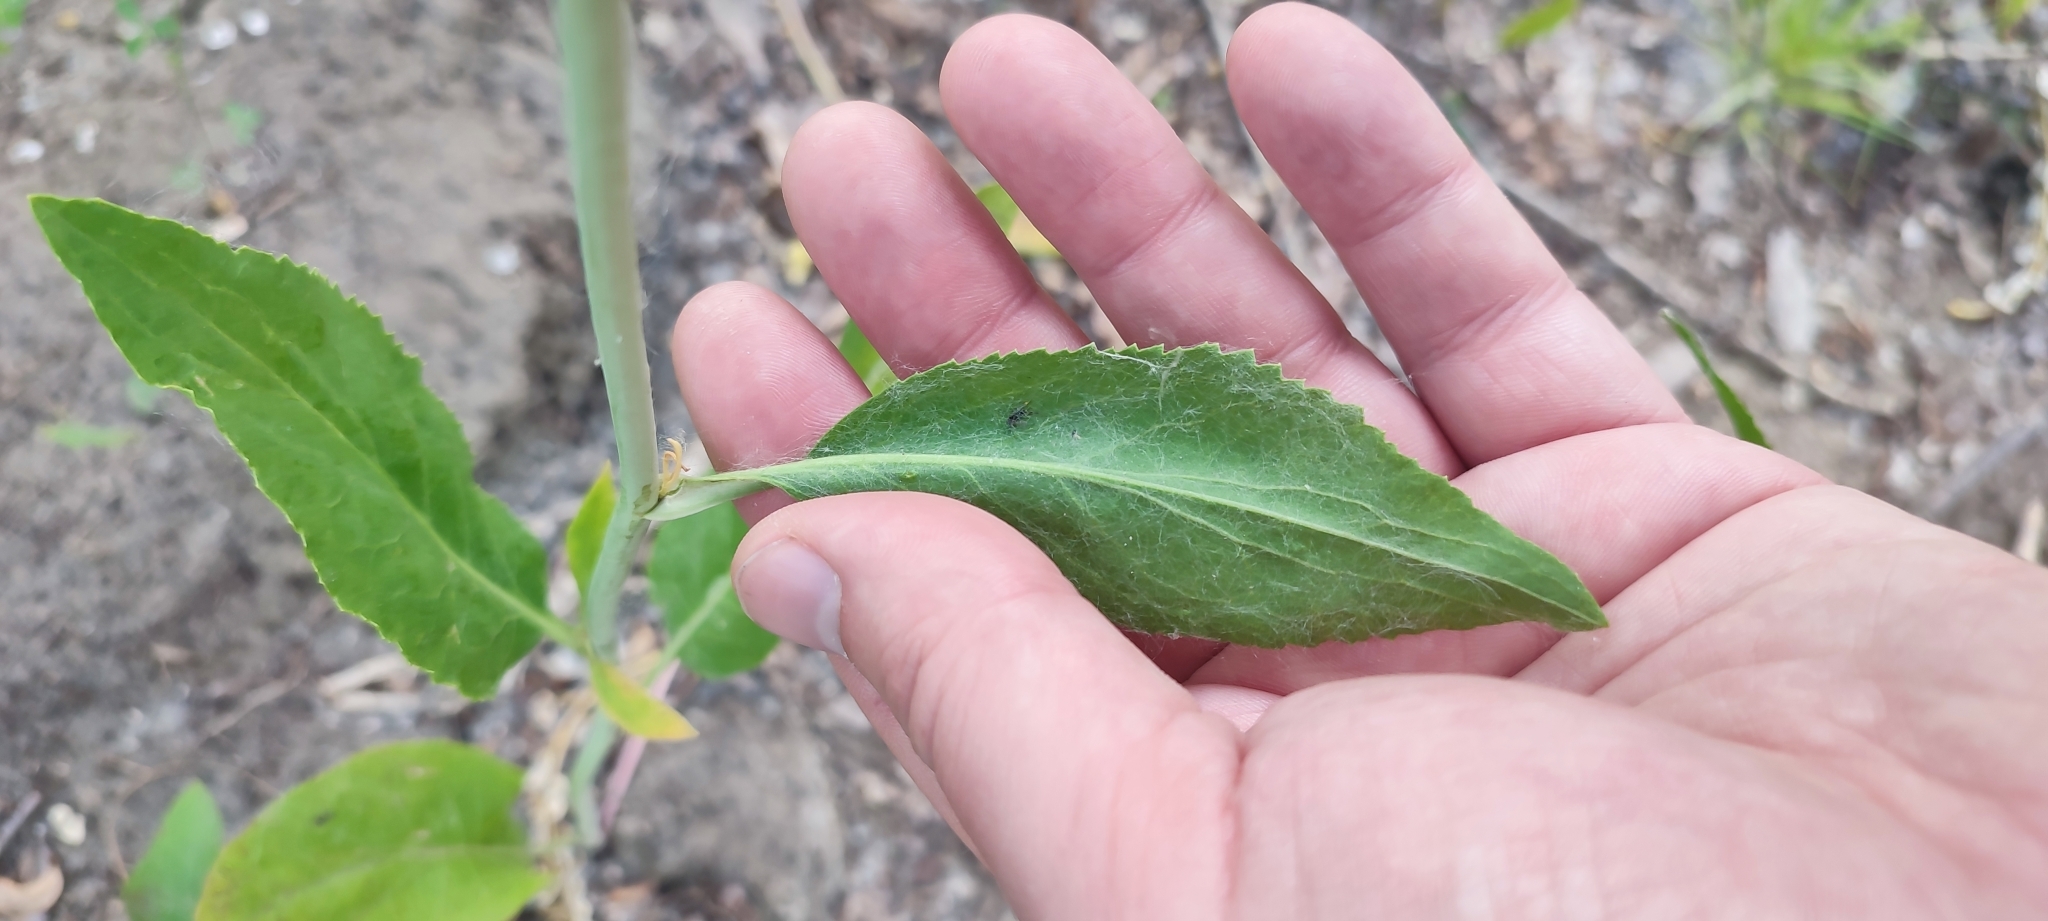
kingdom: Plantae
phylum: Tracheophyta
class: Magnoliopsida
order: Brassicales
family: Brassicaceae
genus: Lepidium
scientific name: Lepidium latifolium
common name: Dittander
